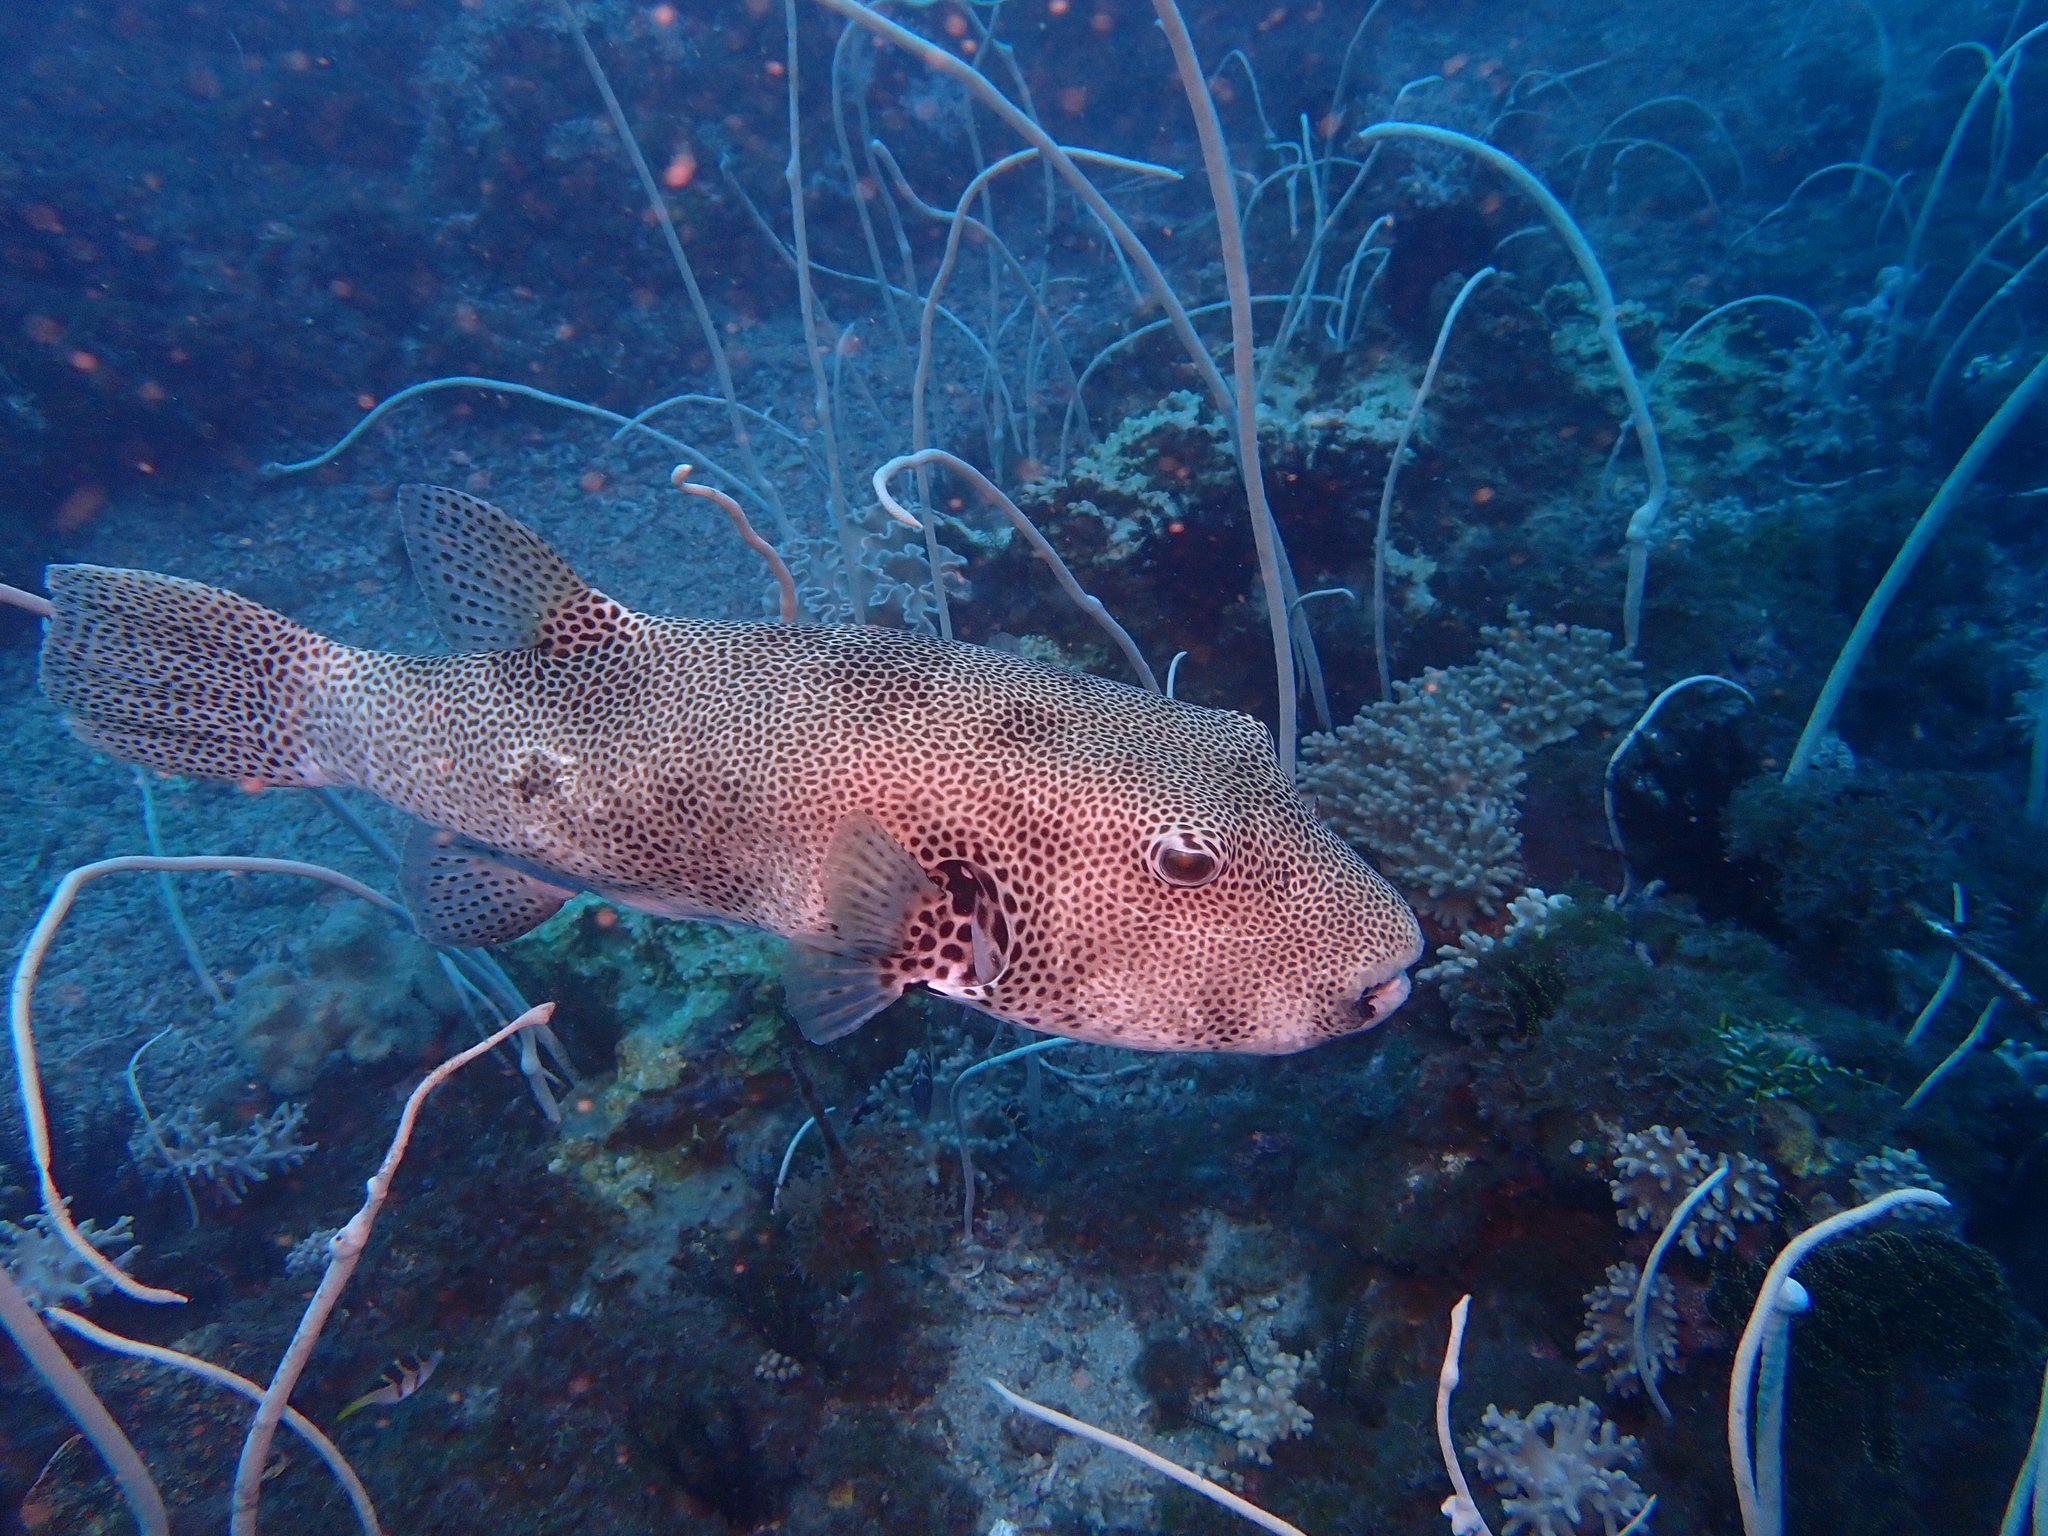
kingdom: Animalia
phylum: Chordata
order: Tetraodontiformes
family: Tetraodontidae
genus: Arothron
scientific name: Arothron stellatus
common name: Star blaasop
